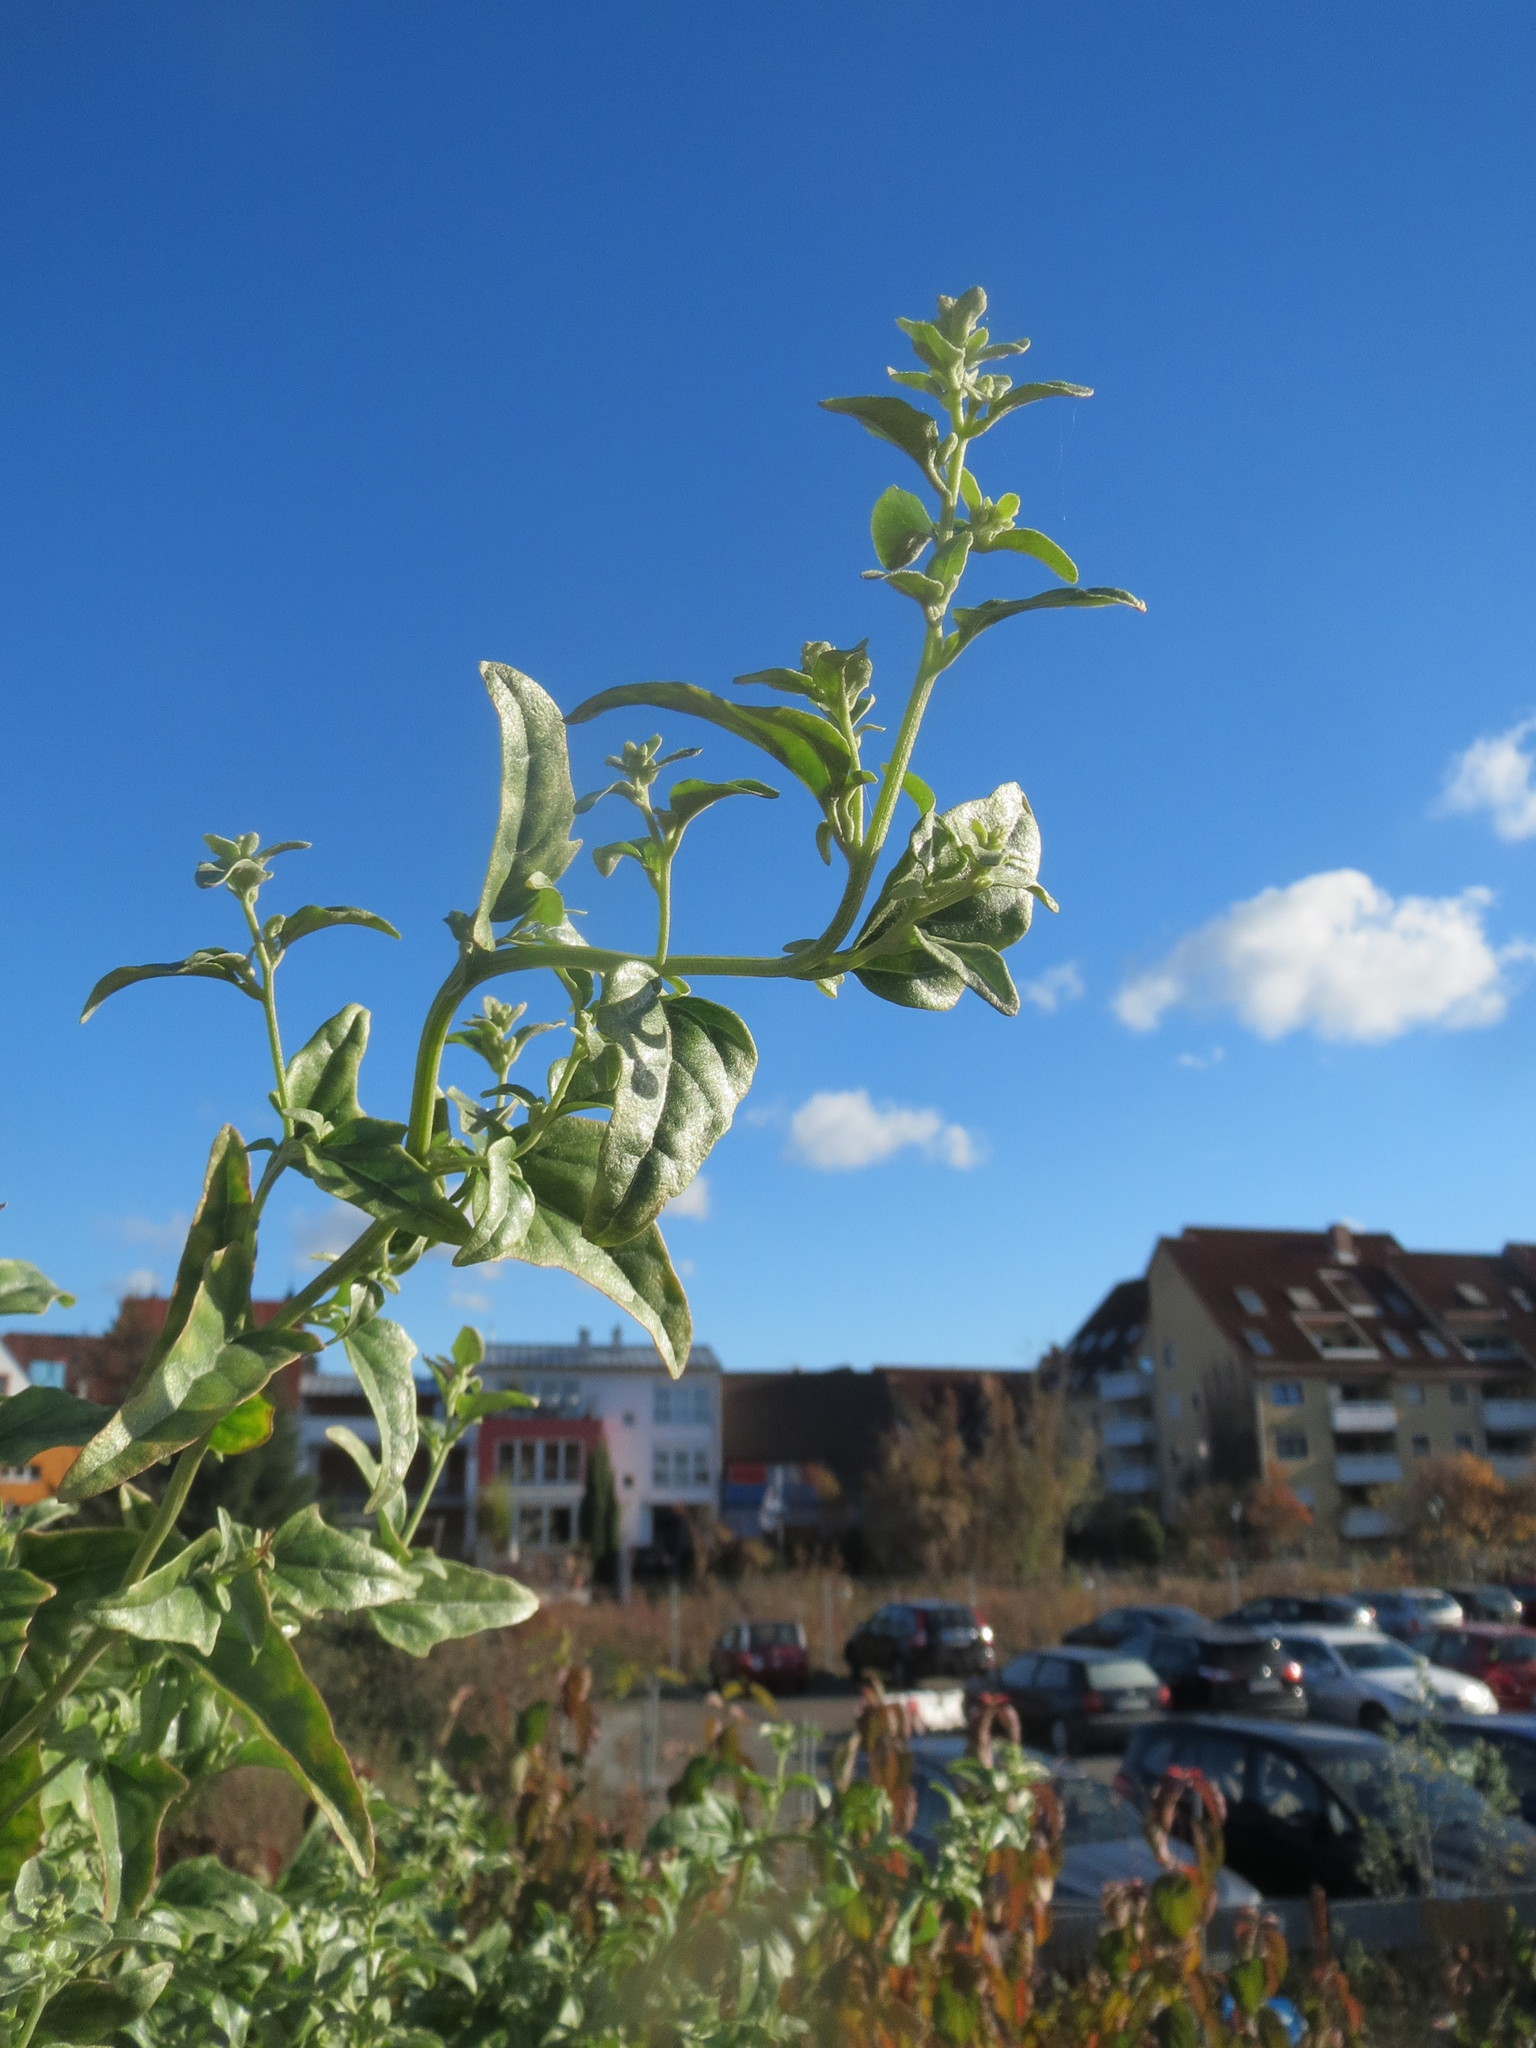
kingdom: Plantae
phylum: Tracheophyta
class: Magnoliopsida
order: Caryophyllales
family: Amaranthaceae
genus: Atriplex
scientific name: Atriplex sagittata
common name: Purple orache
